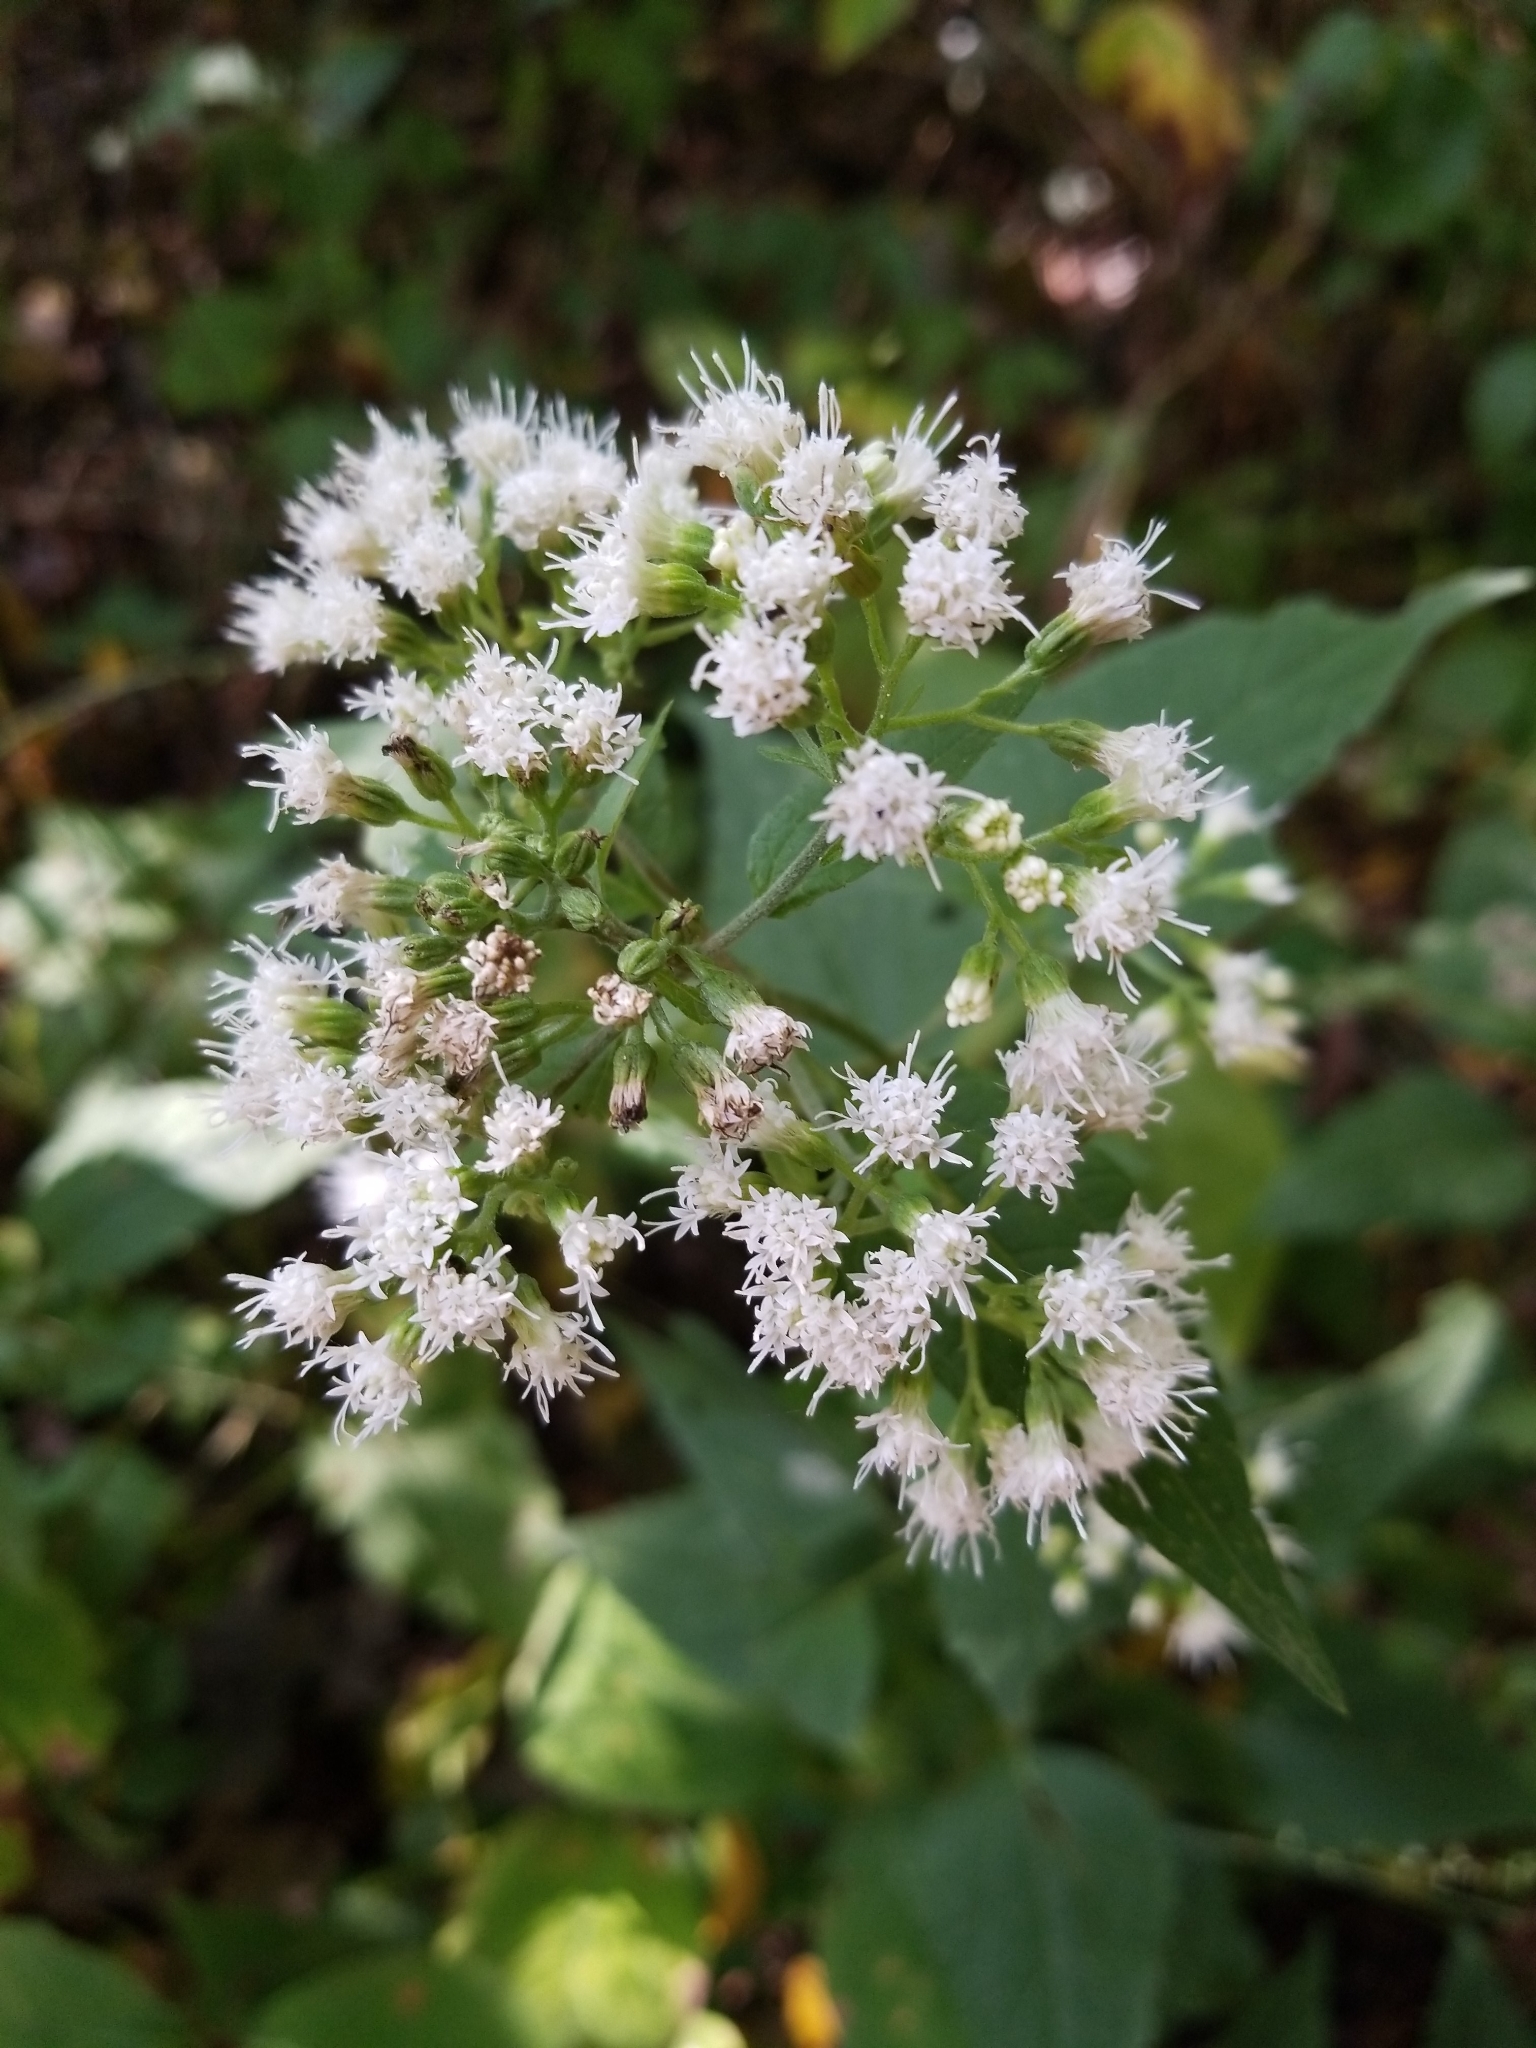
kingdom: Plantae
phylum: Tracheophyta
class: Magnoliopsida
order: Asterales
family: Asteraceae
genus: Ageratina
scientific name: Ageratina altissima
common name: White snakeroot
